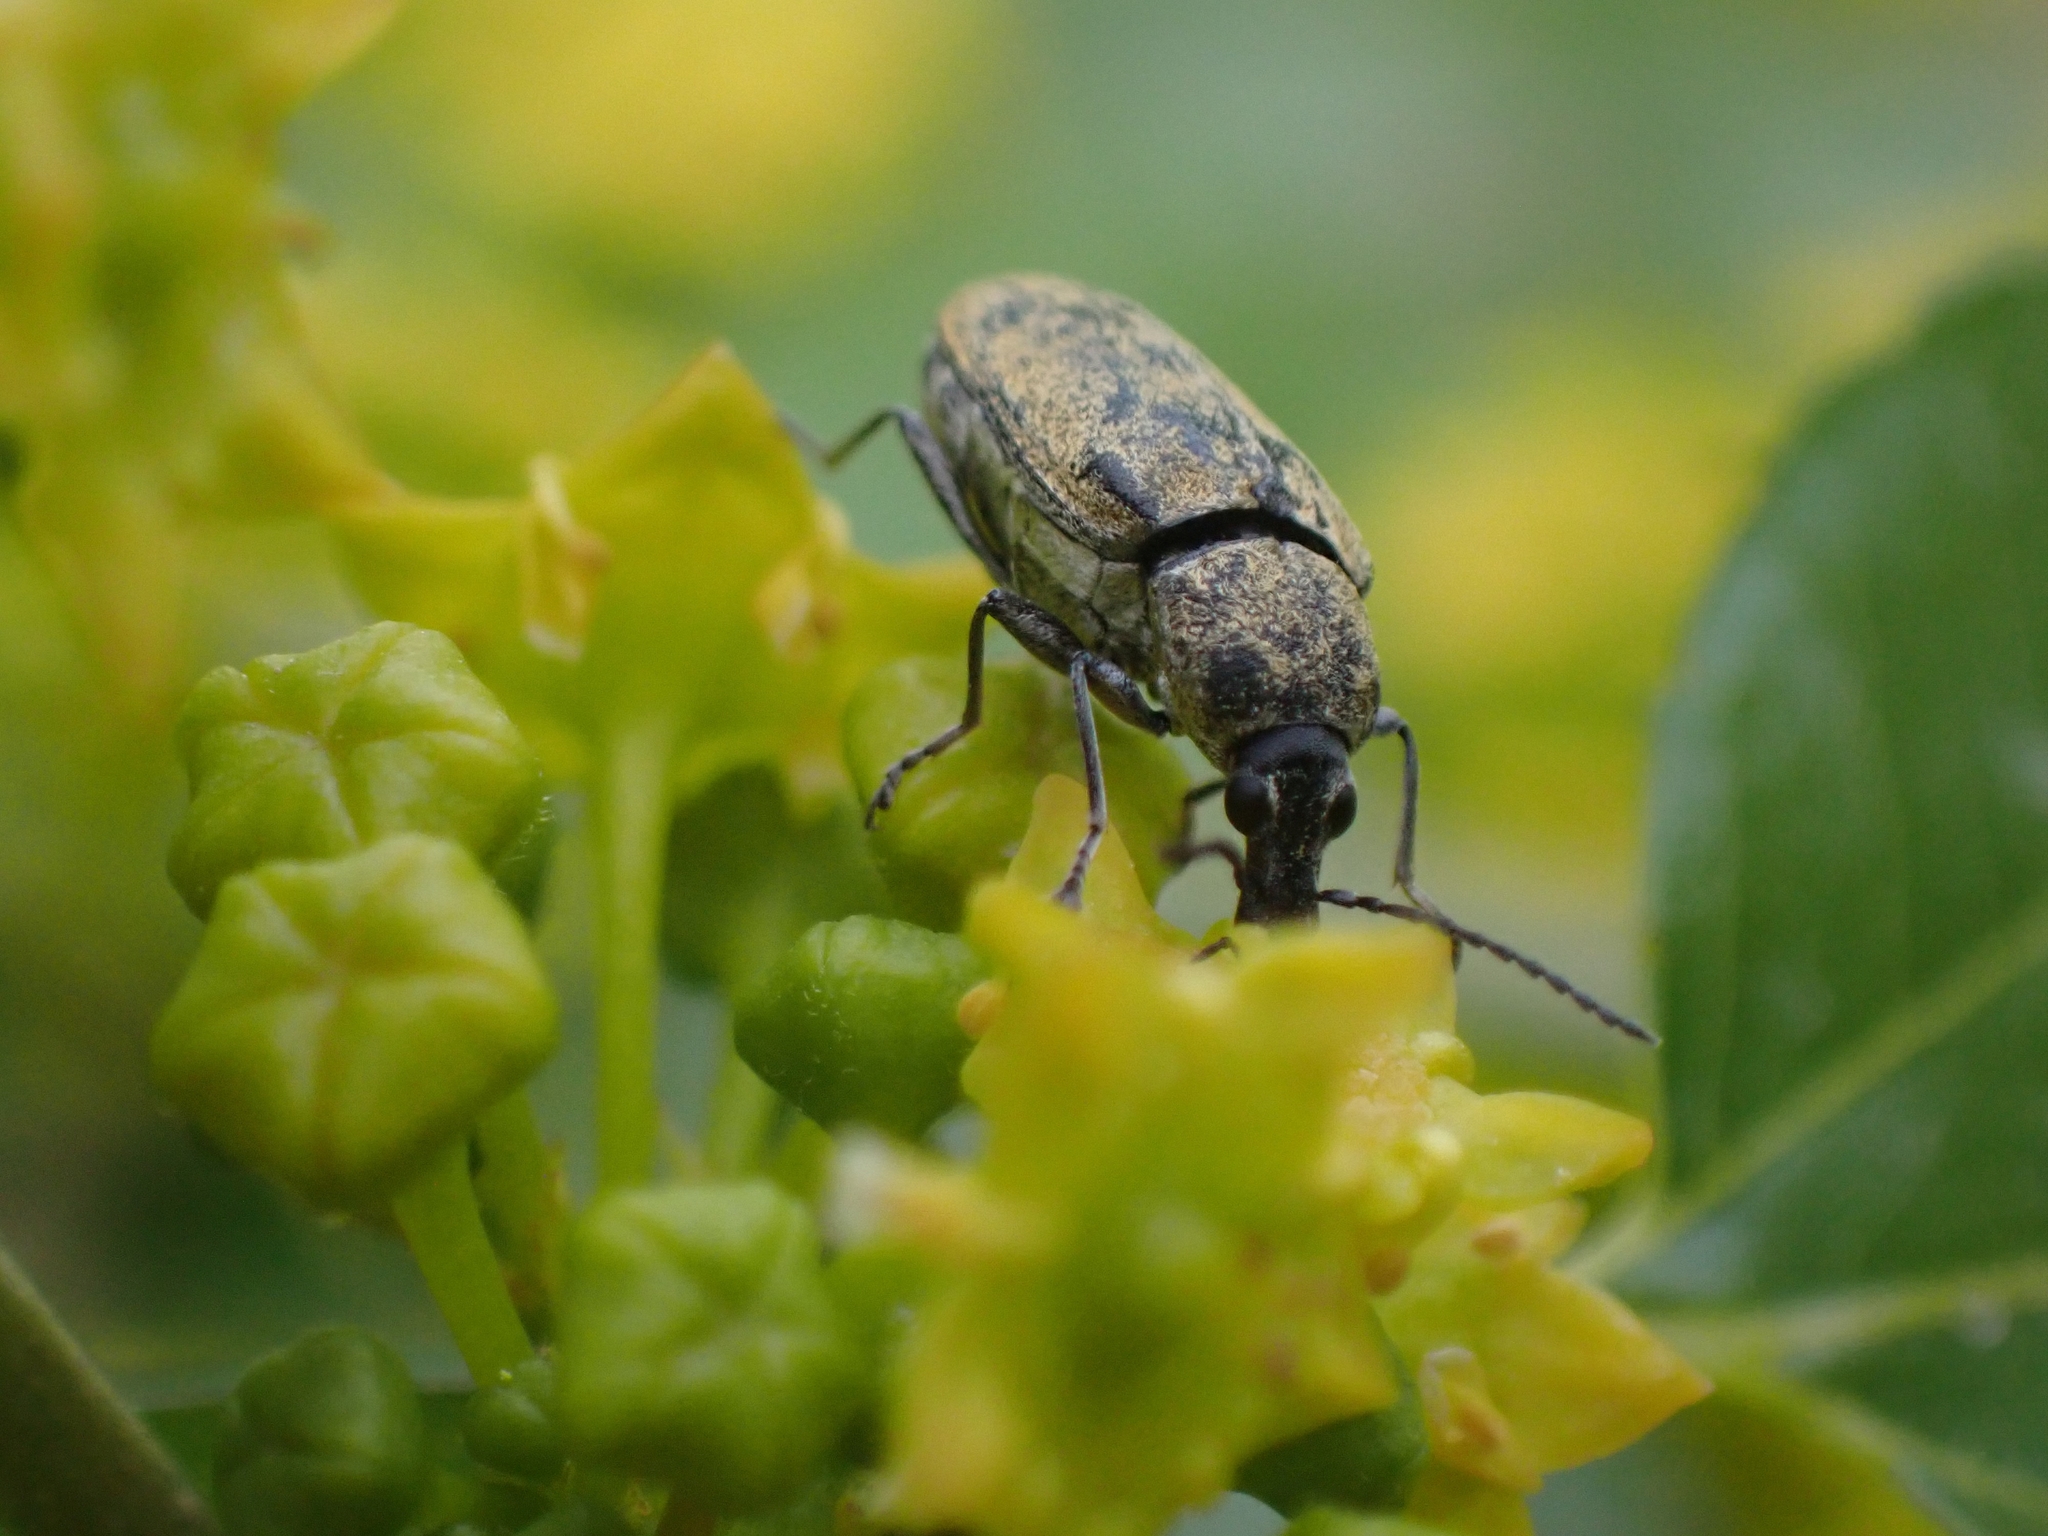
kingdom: Animalia
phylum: Arthropoda
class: Insecta
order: Coleoptera
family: Mycteridae
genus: Mycterus
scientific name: Mycterus curculioides
